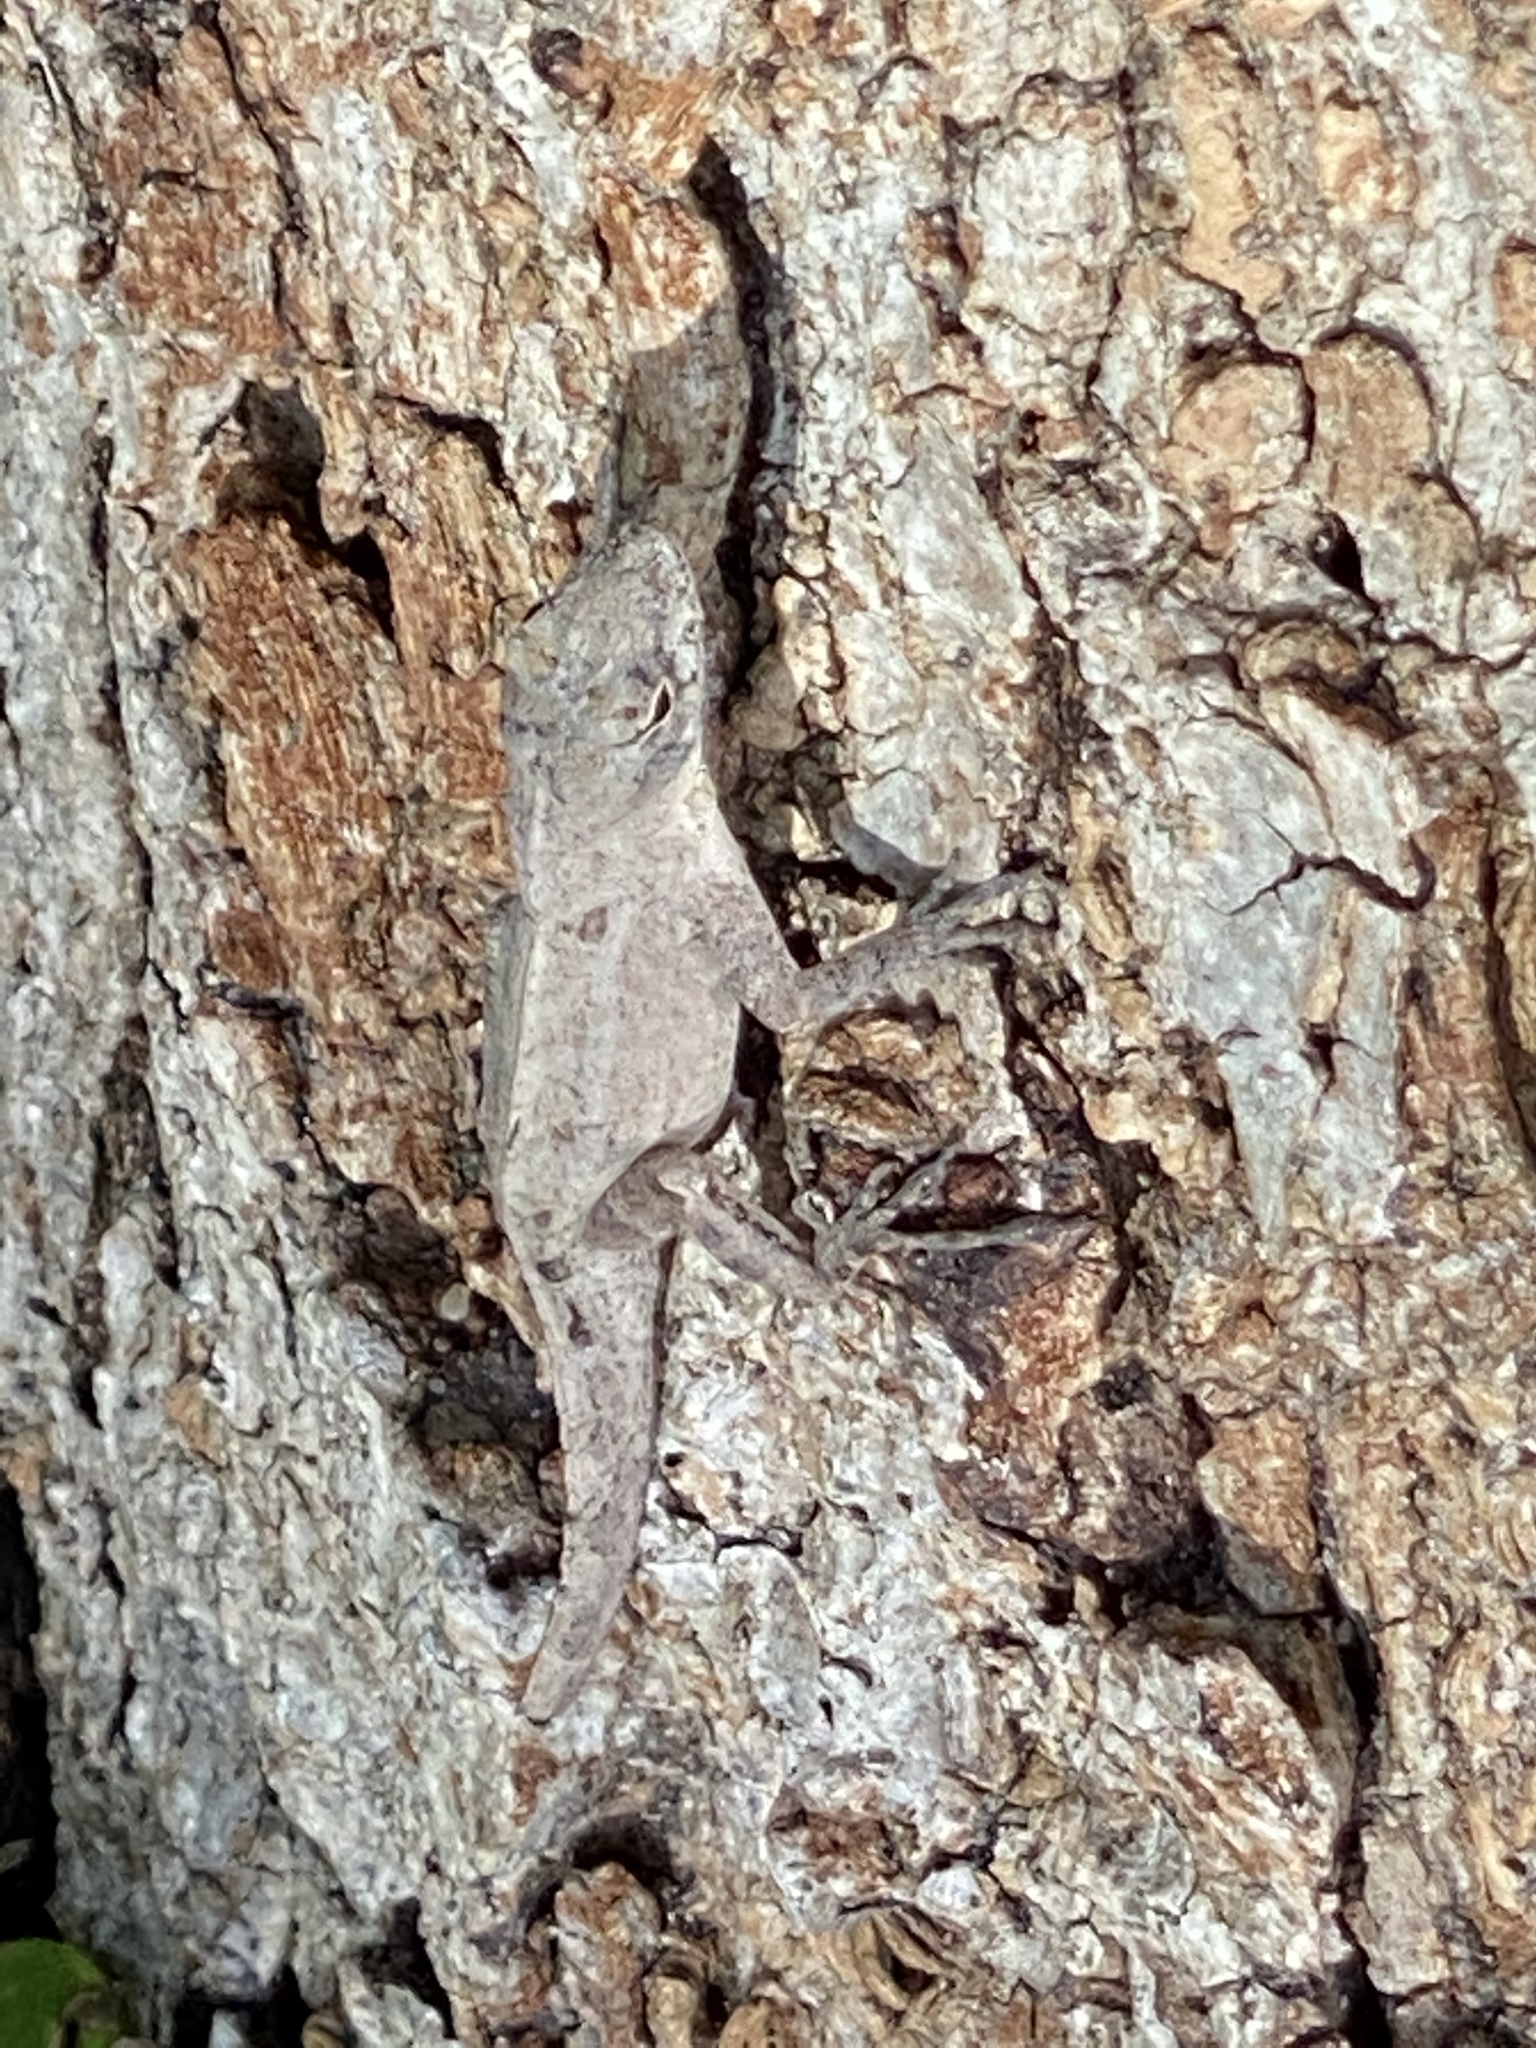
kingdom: Animalia
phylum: Chordata
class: Squamata
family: Dactyloidae
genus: Anolis
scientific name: Anolis sagrei
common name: Brown anole
